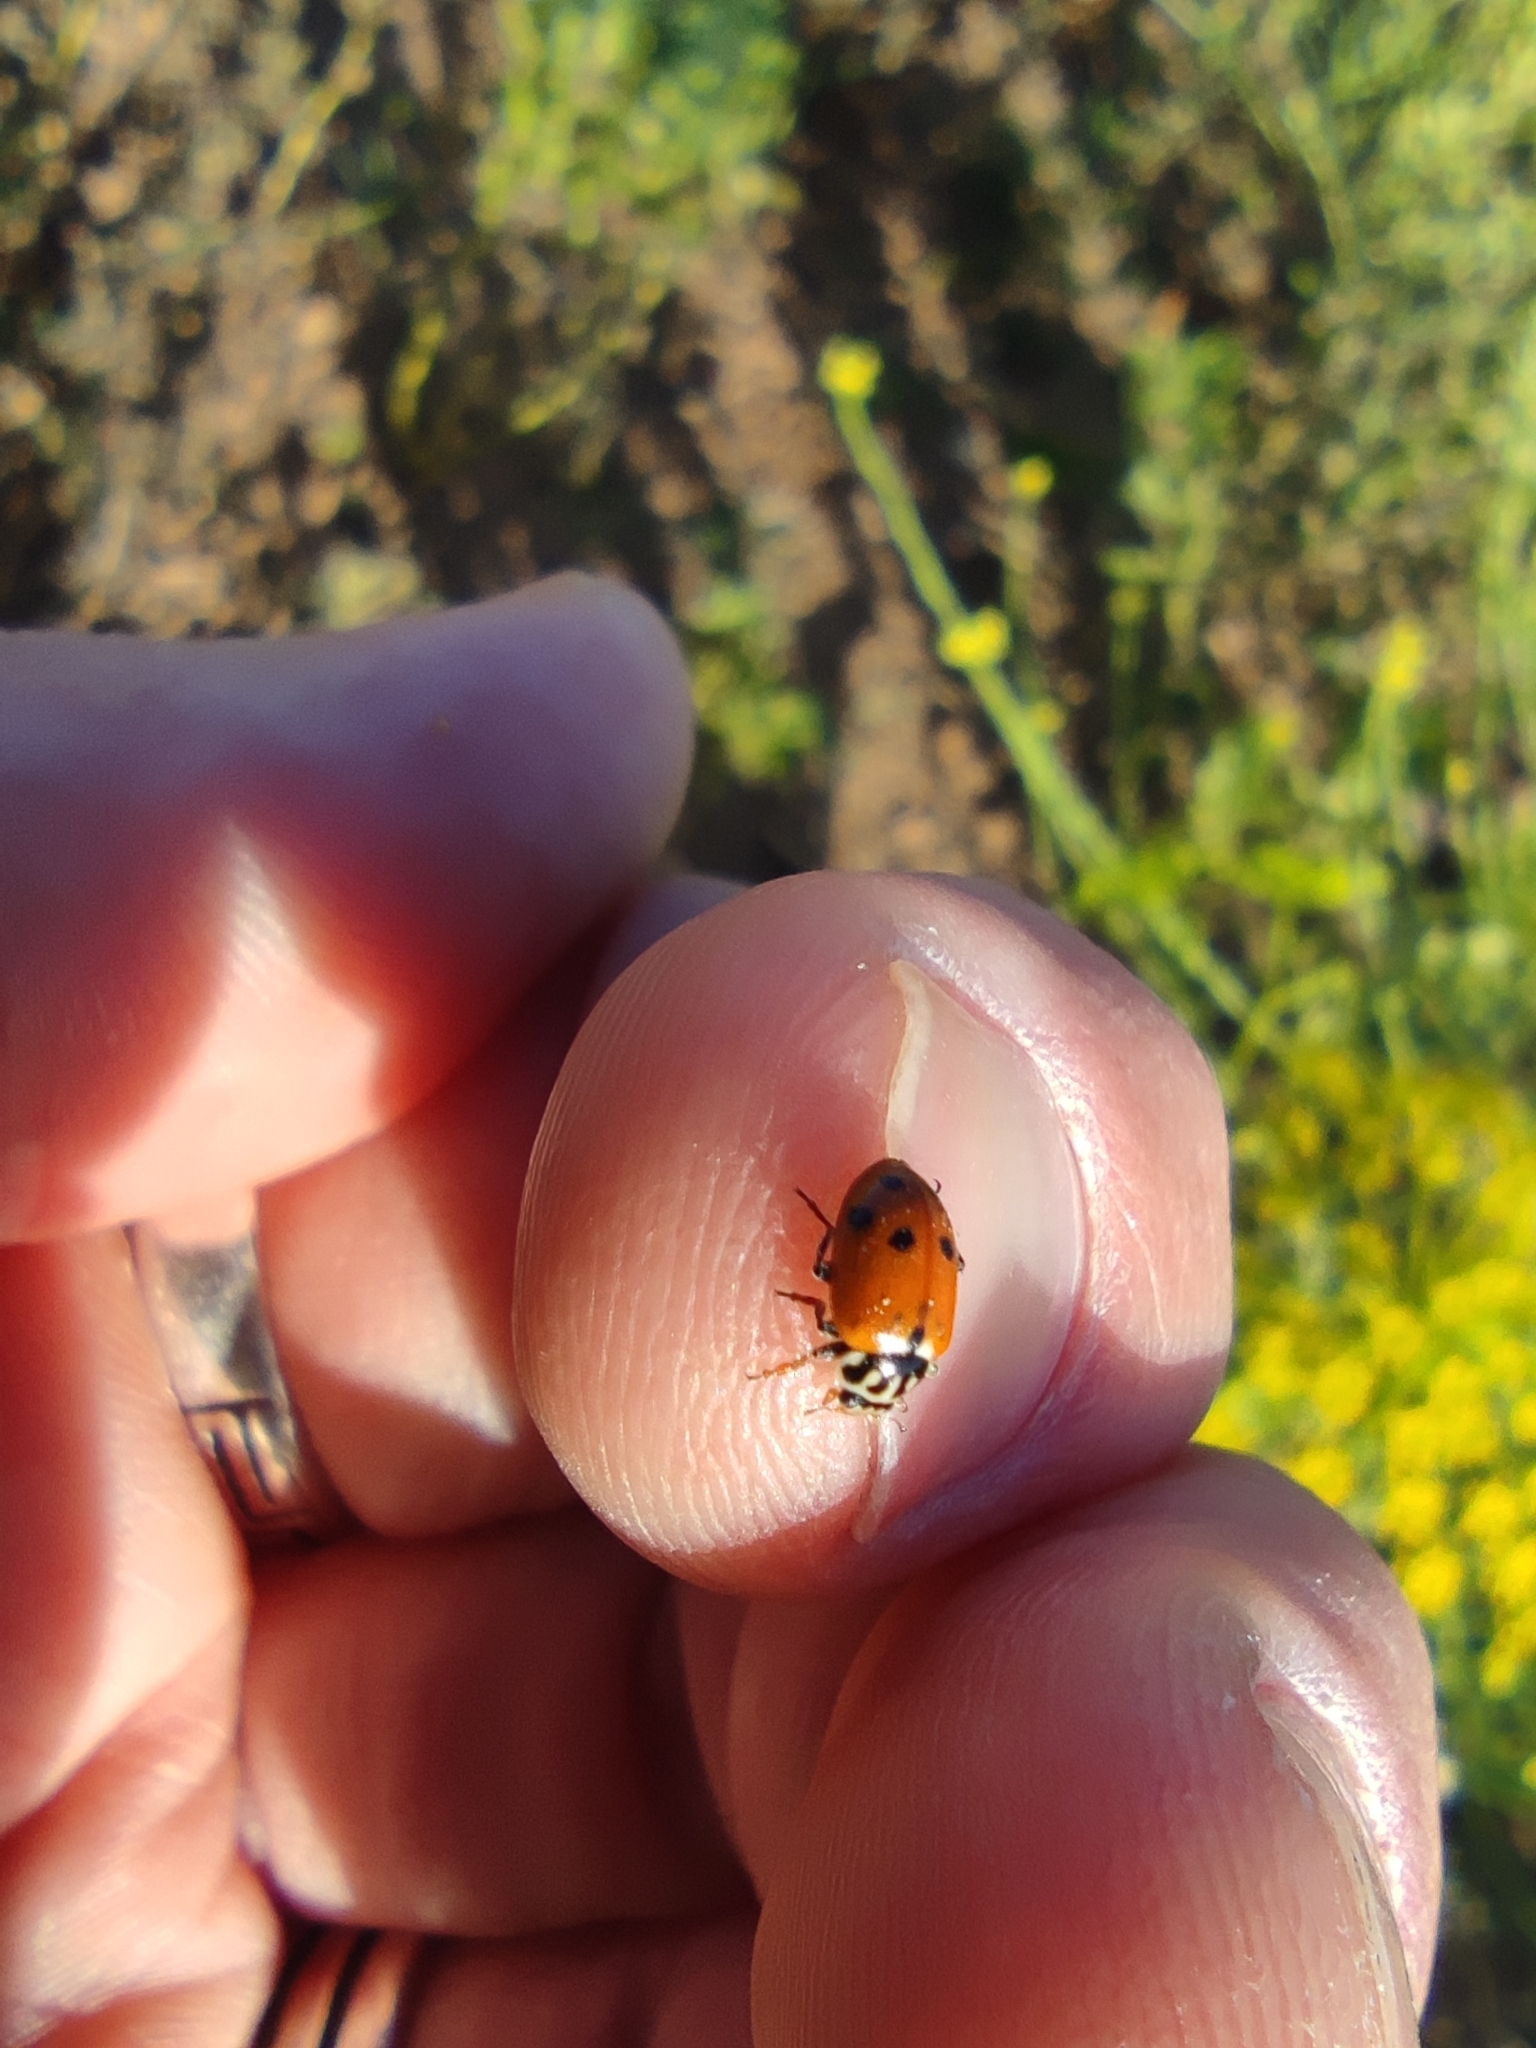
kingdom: Animalia
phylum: Arthropoda
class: Insecta
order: Coleoptera
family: Coccinellidae
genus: Hippodamia
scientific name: Hippodamia variegata
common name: Ladybird beetle
